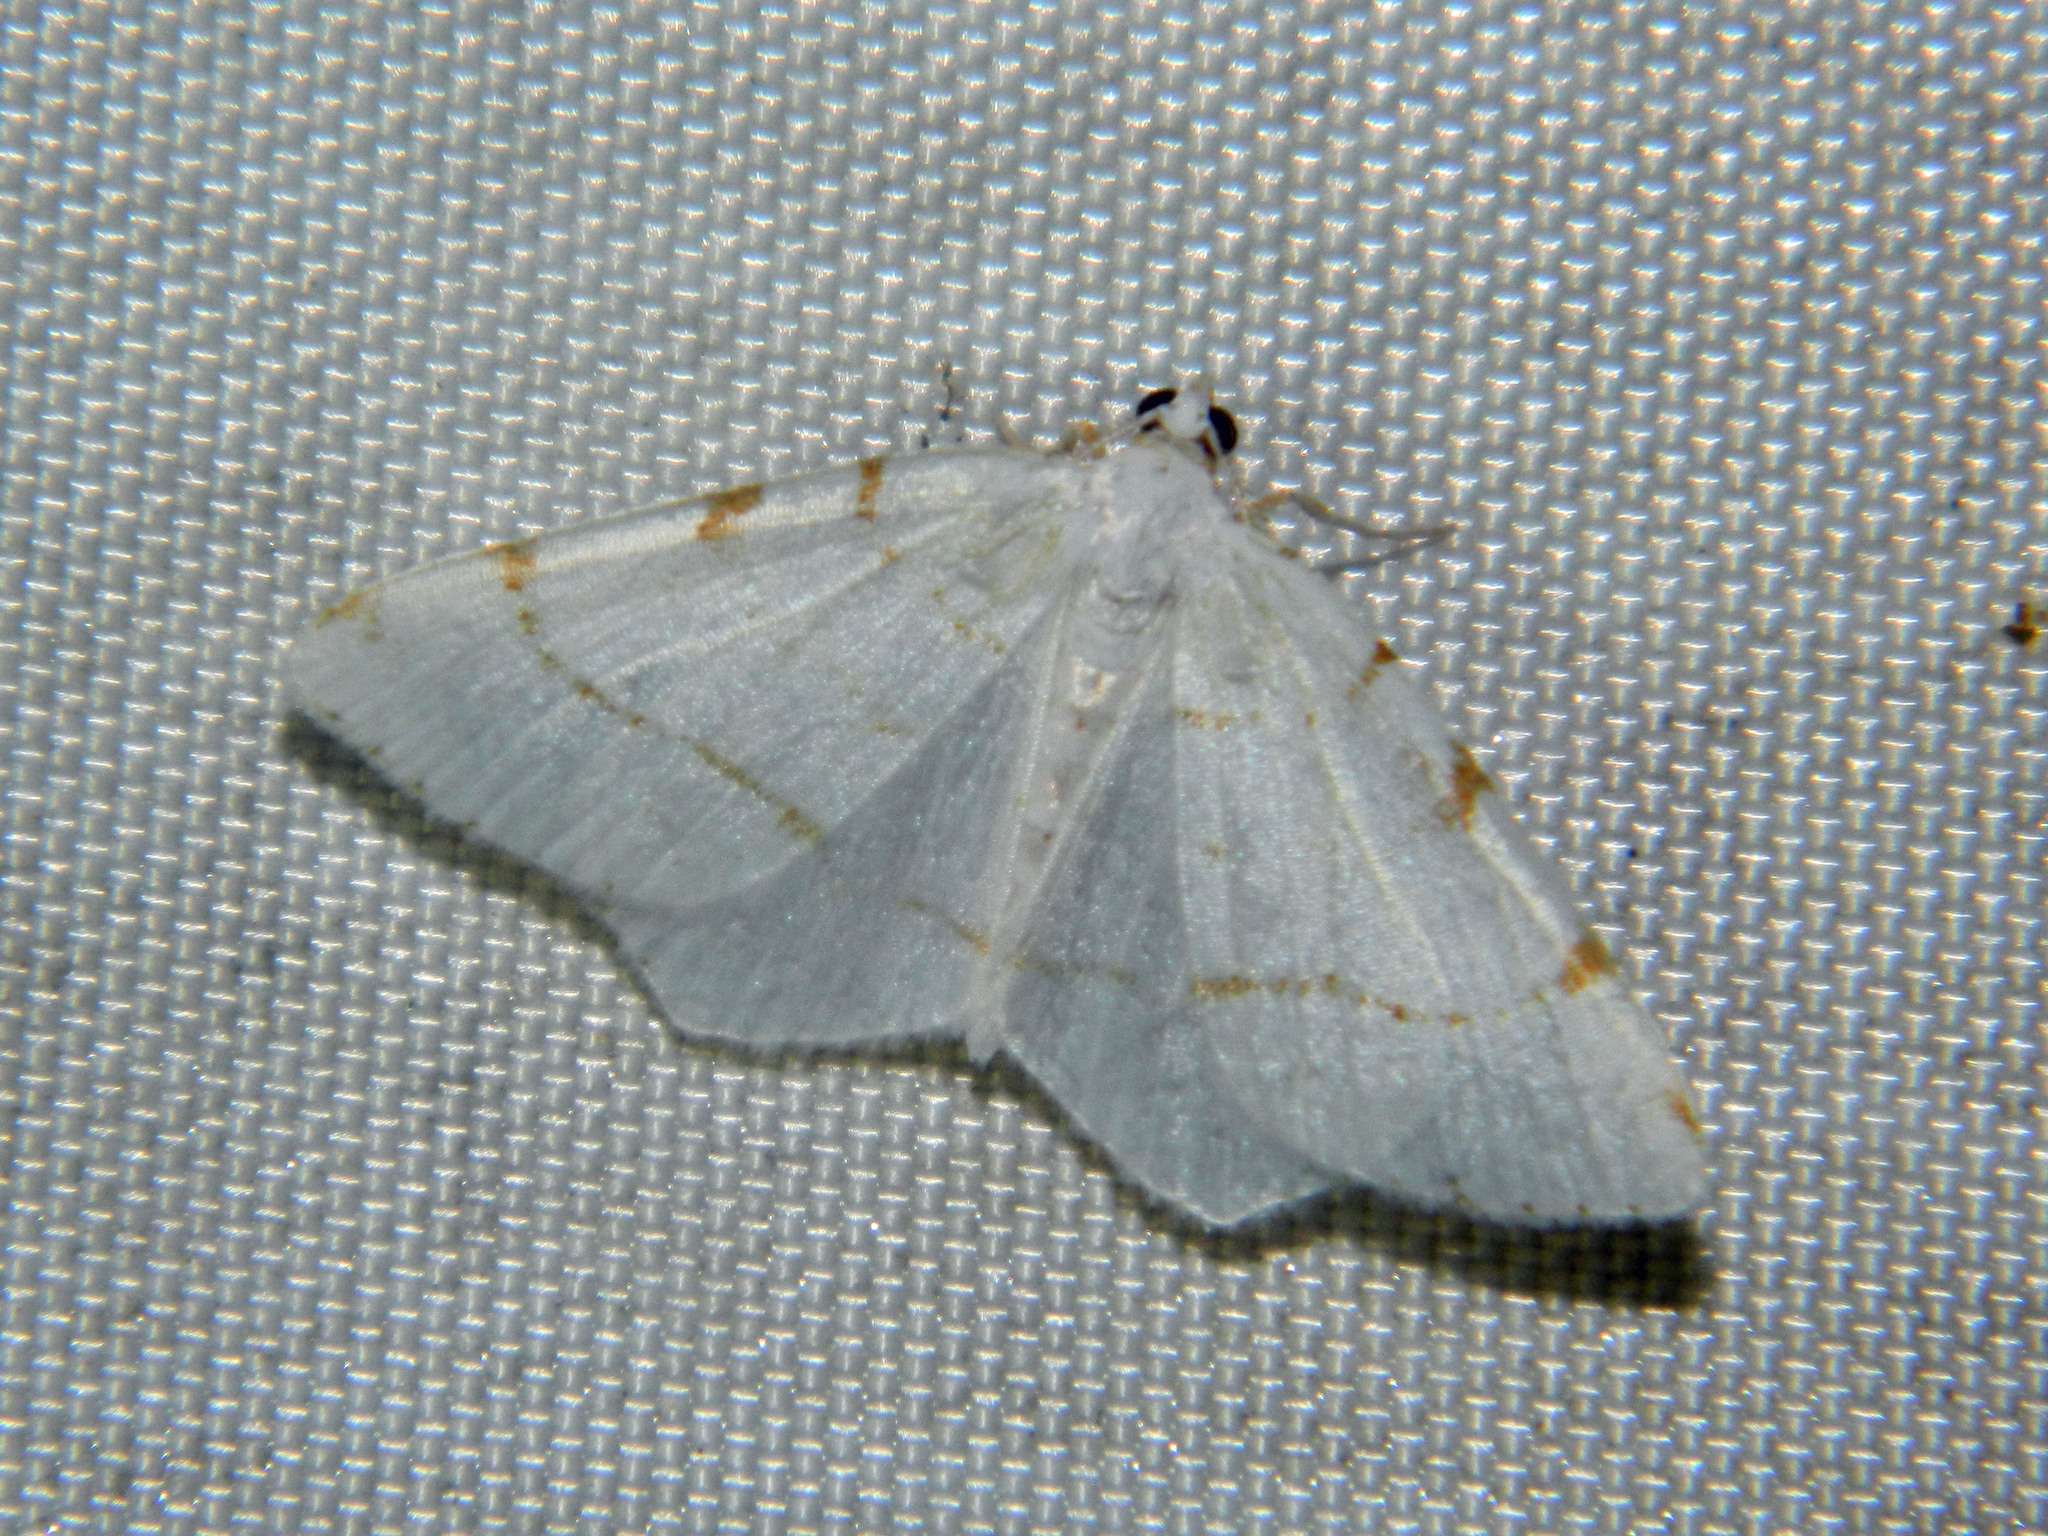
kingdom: Animalia
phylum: Arthropoda
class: Insecta
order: Lepidoptera
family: Geometridae
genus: Macaria
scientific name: Macaria pustularia
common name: Lesser maple spanworm moth
